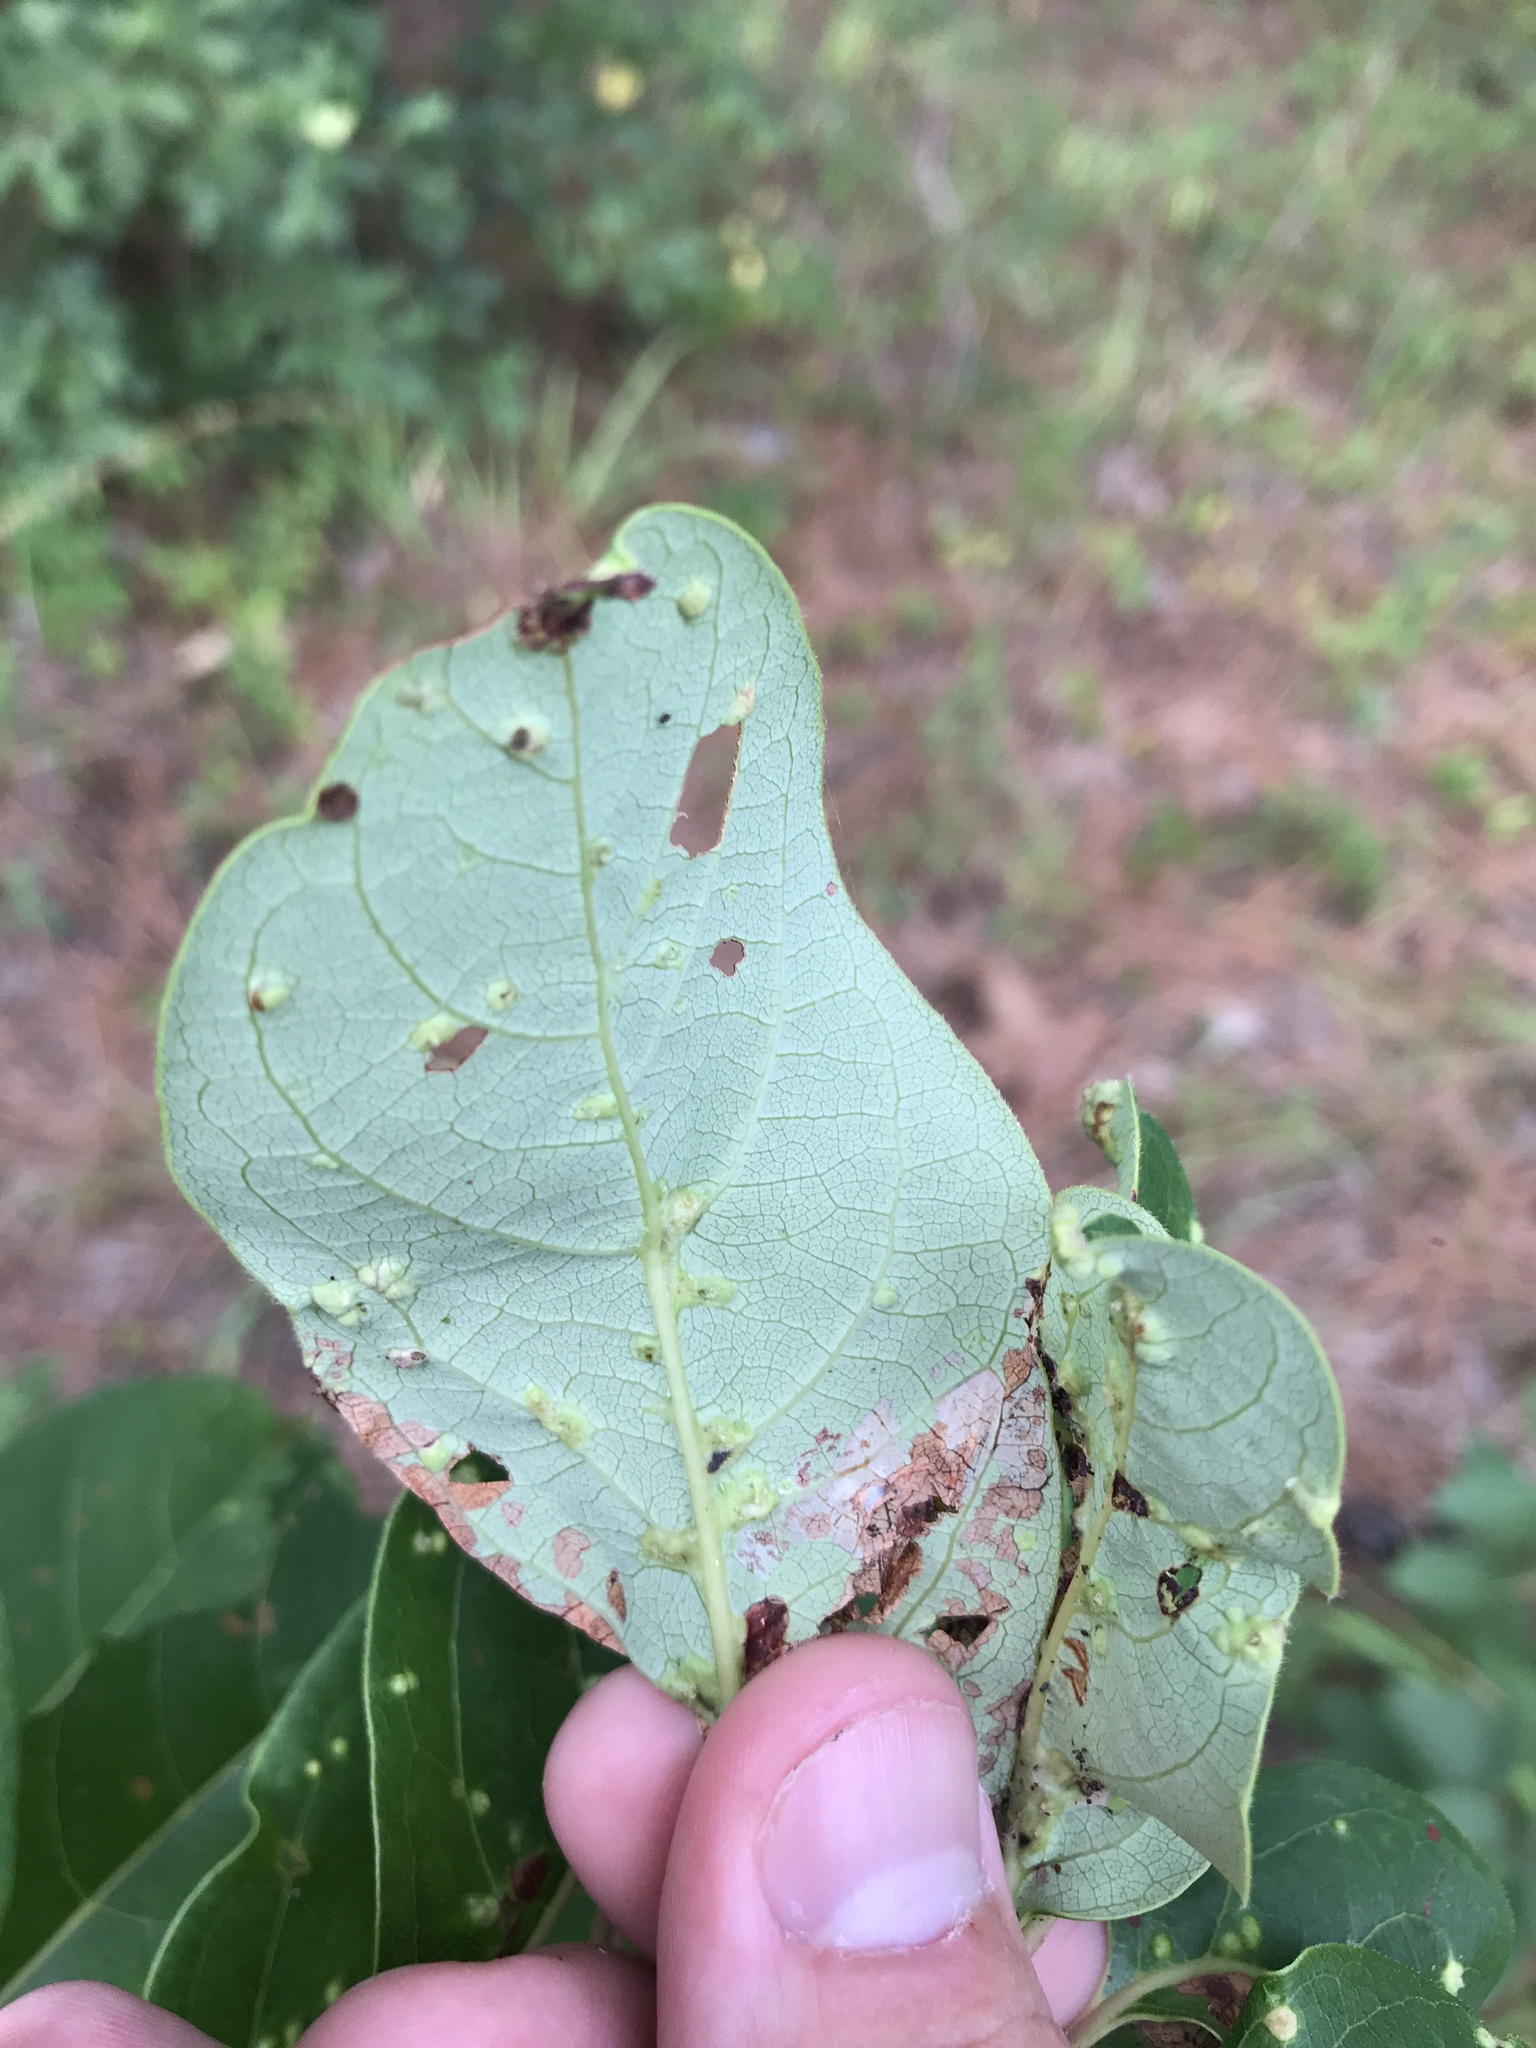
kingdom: Animalia
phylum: Arthropoda
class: Arachnida
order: Trombidiformes
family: Eriophyidae
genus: Aceria
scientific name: Aceria
